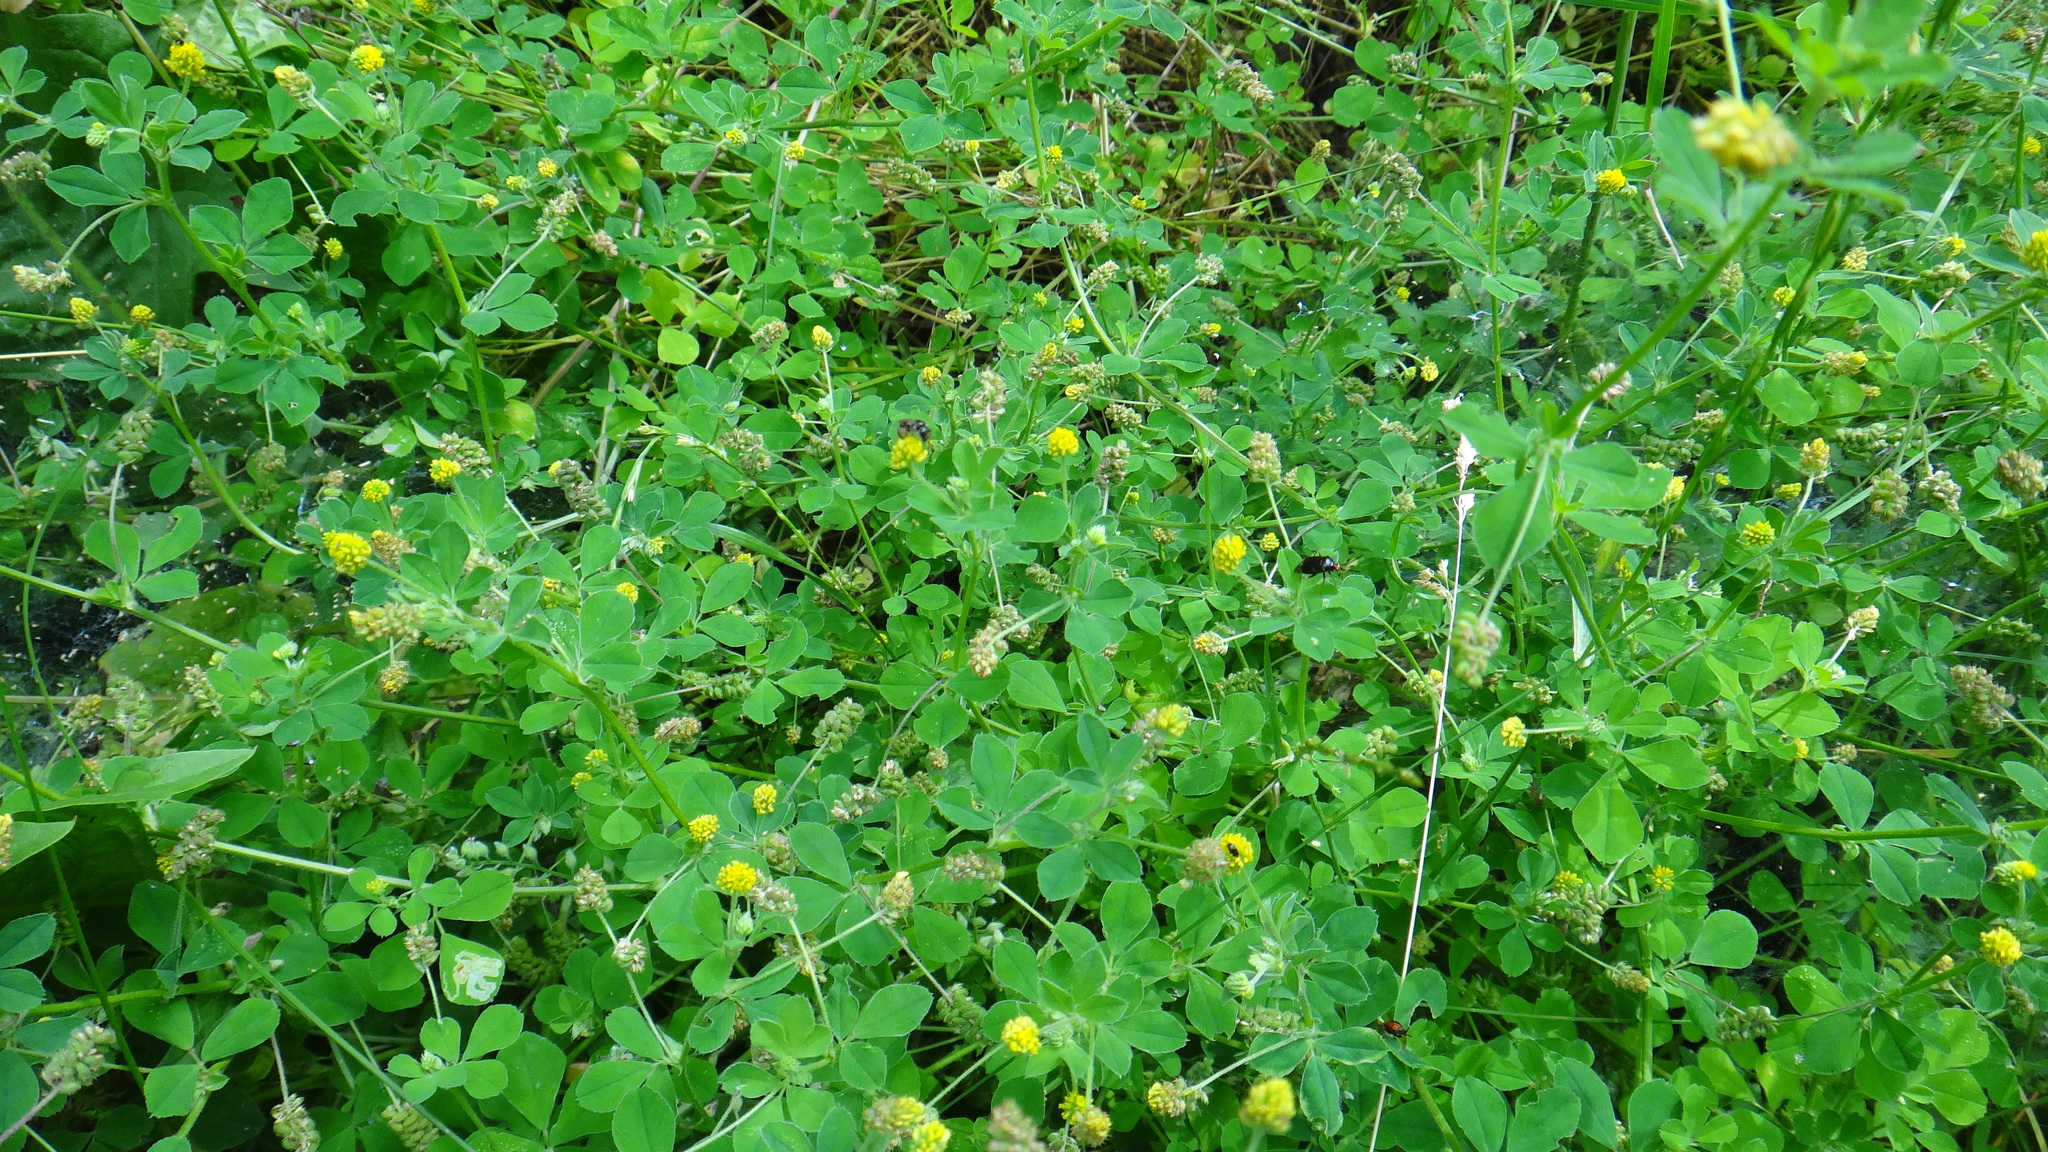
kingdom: Plantae
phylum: Tracheophyta
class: Magnoliopsida
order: Fabales
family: Fabaceae
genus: Medicago
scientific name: Medicago lupulina
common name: Black medick
